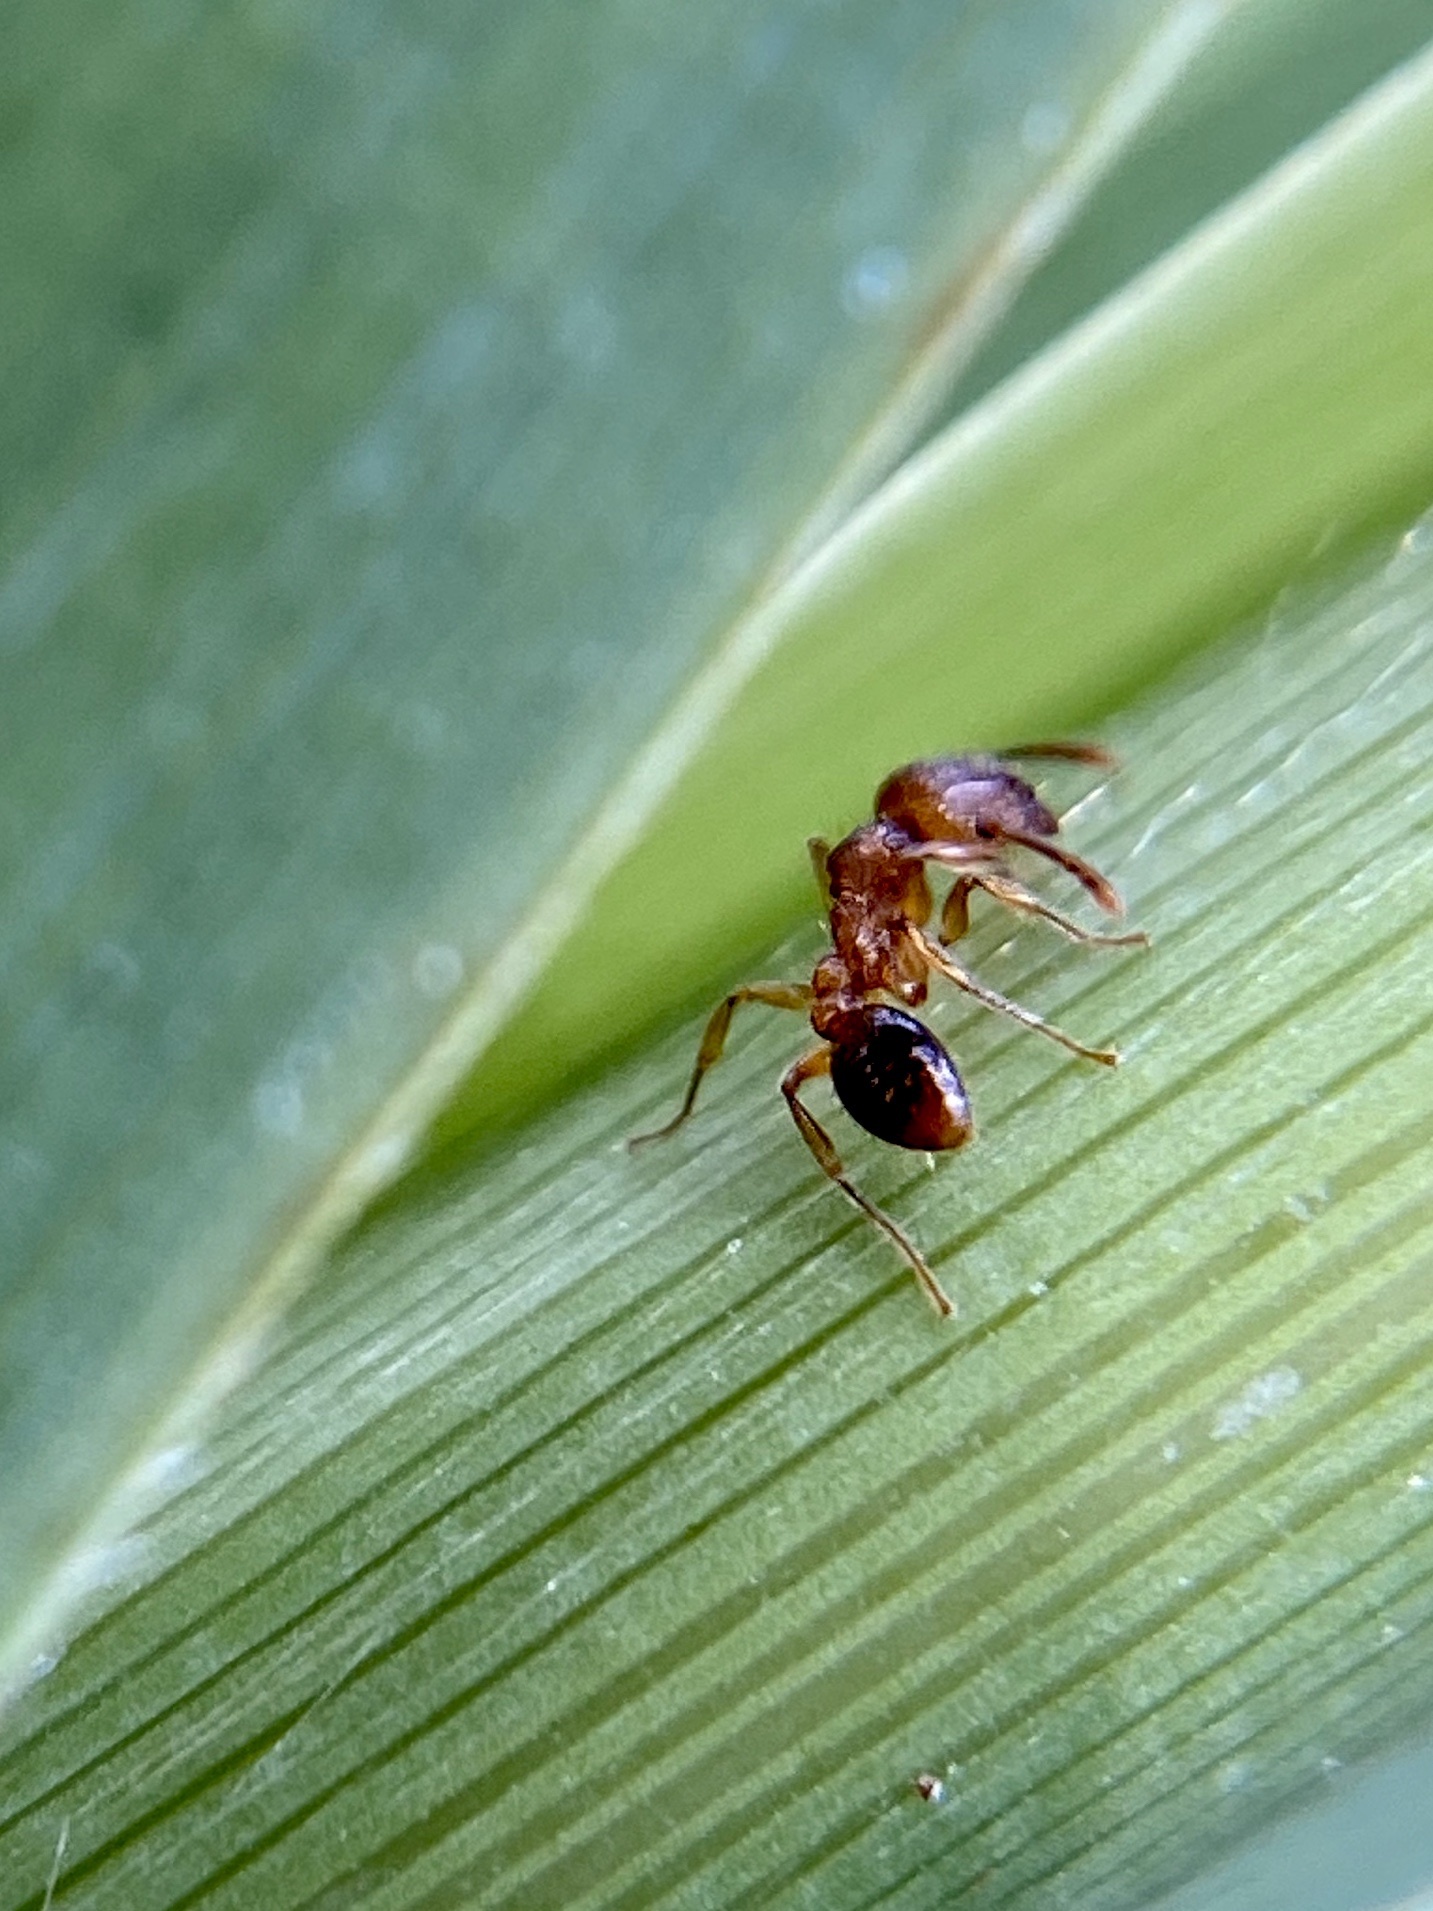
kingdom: Animalia
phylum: Arthropoda
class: Insecta
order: Hymenoptera
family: Formicidae
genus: Tetramorium
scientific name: Tetramorium bicarinatum
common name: Guinea ant
